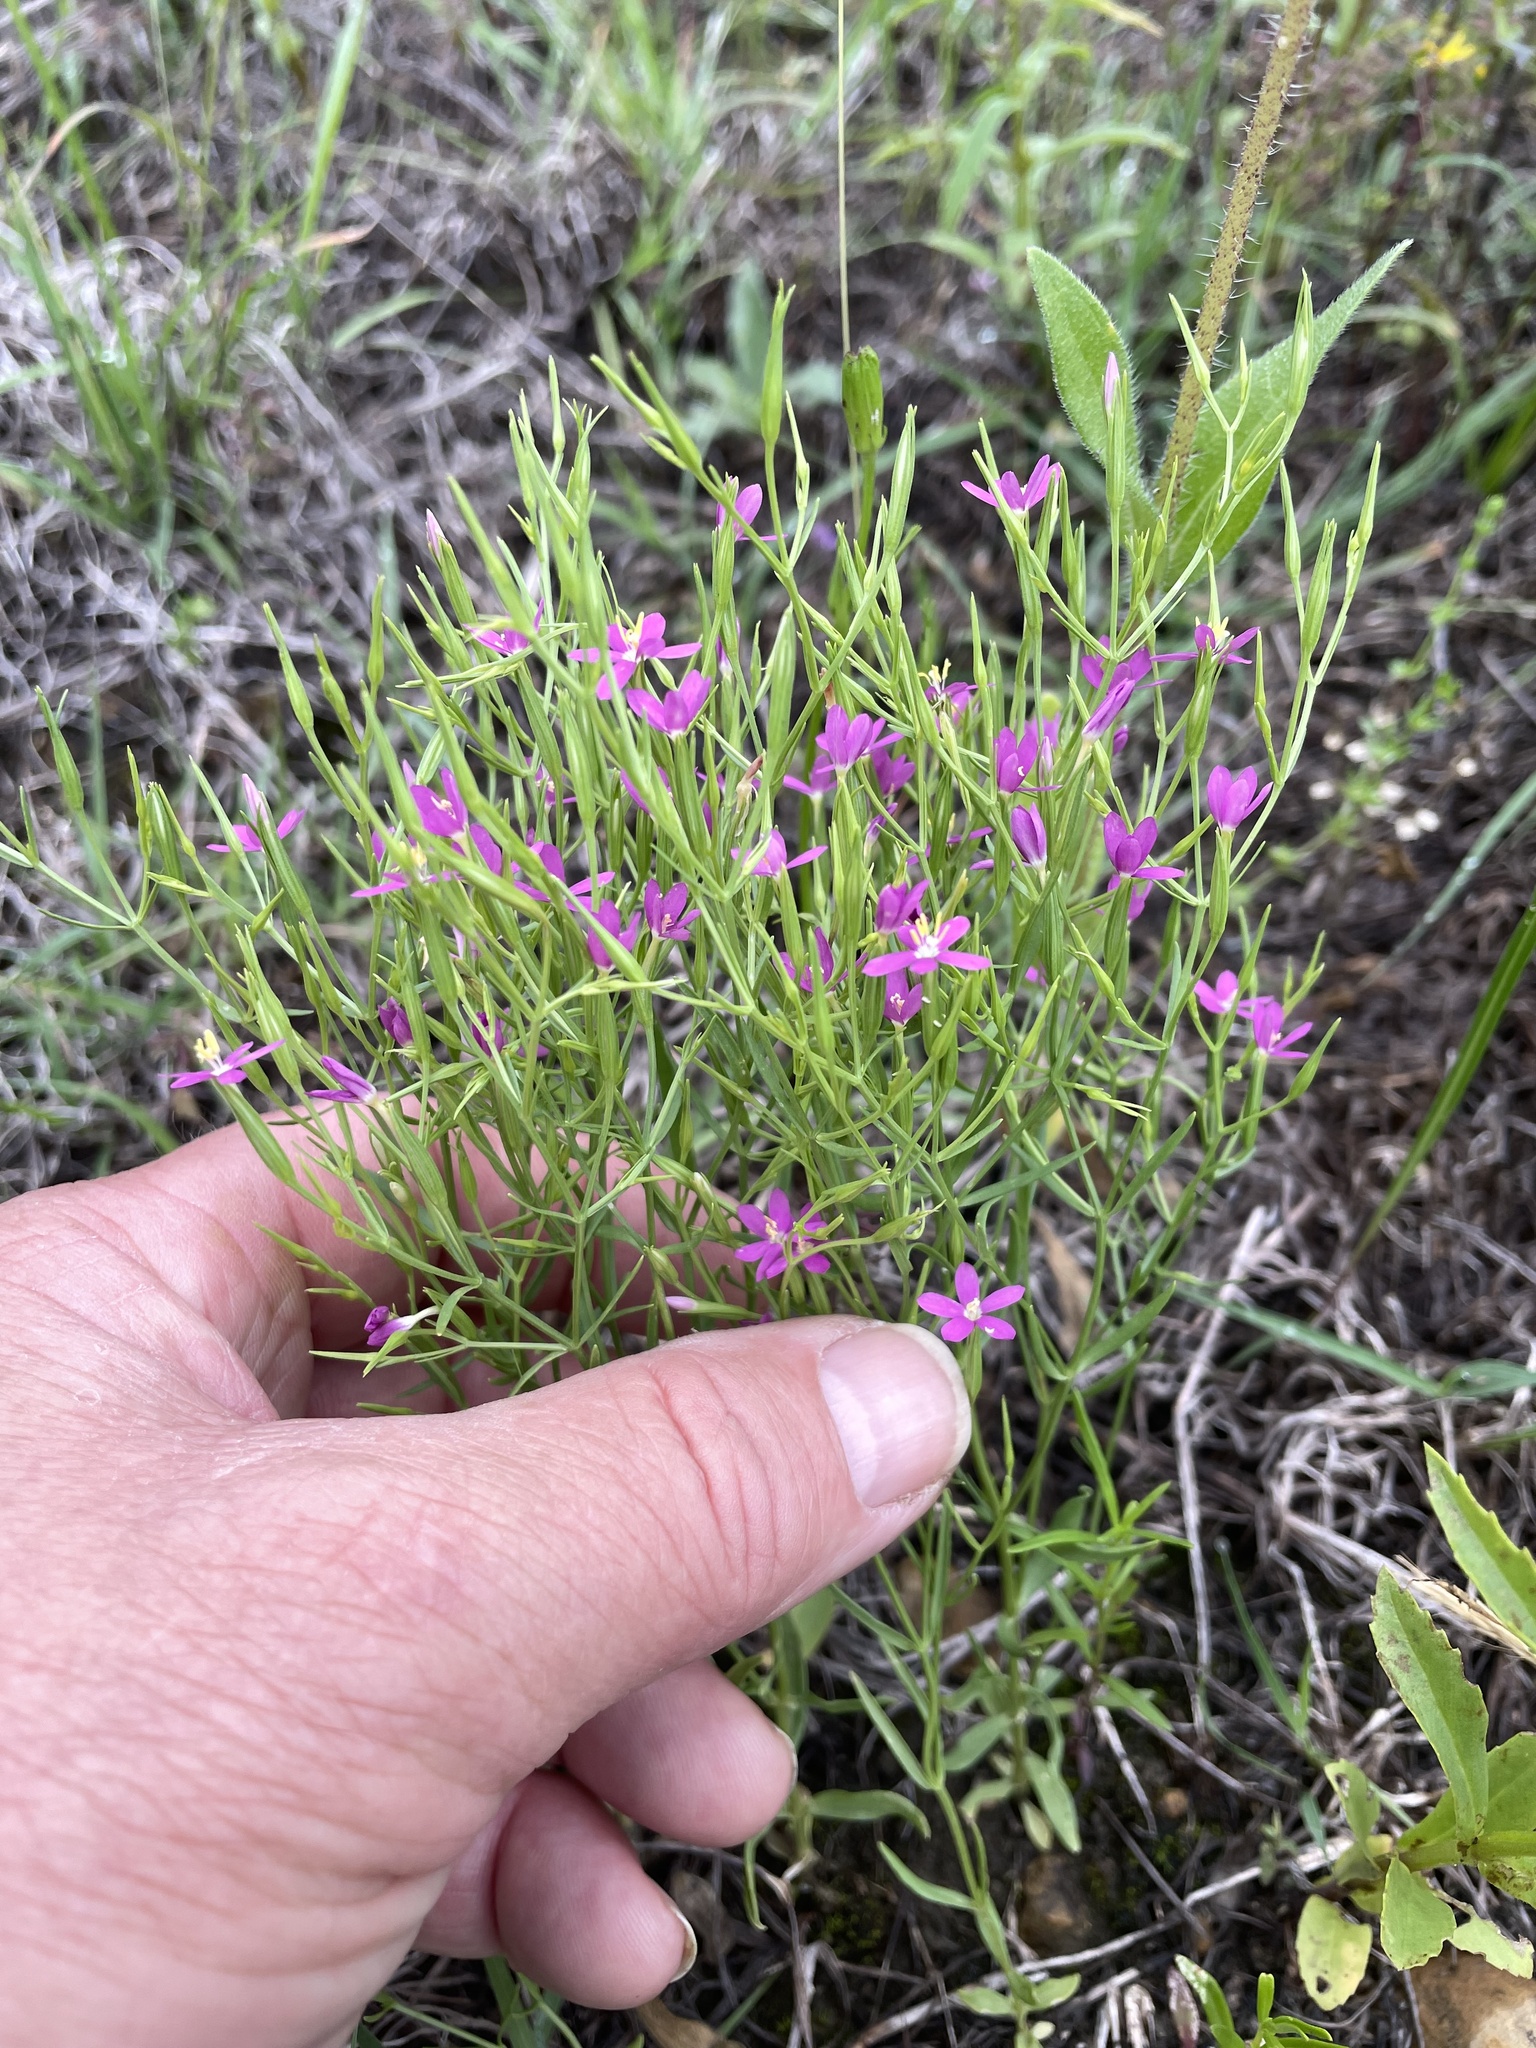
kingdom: Plantae
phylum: Tracheophyta
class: Magnoliopsida
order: Gentianales
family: Gentianaceae
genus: Zeltnera
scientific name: Zeltnera texensis
